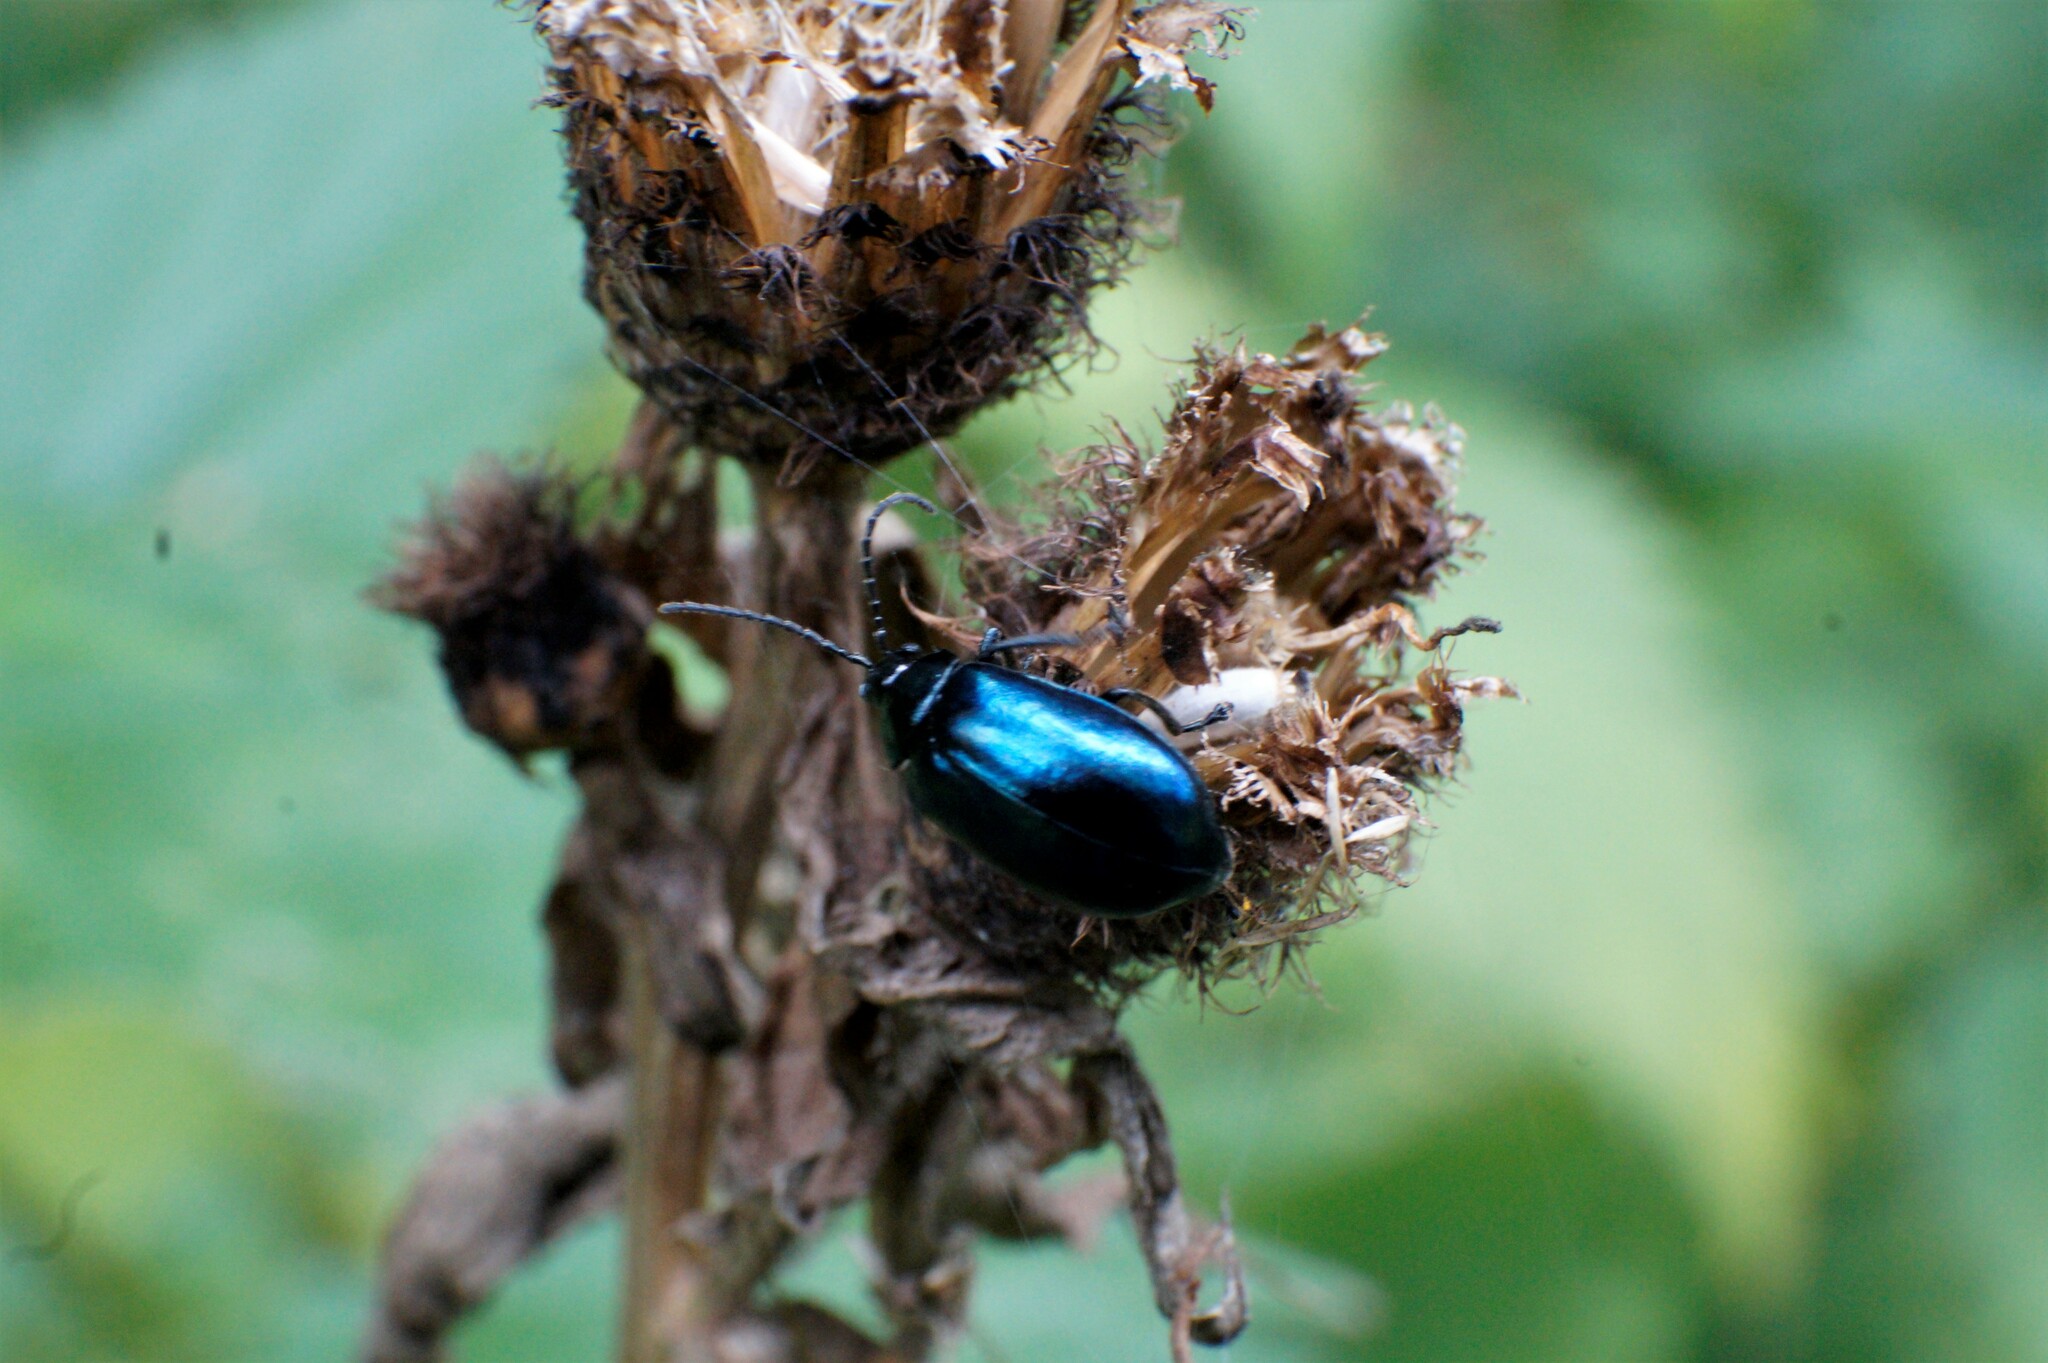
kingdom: Animalia
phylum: Arthropoda
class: Insecta
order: Coleoptera
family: Chrysomelidae
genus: Agelastica
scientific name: Agelastica alni
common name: Alder leaf beetle
